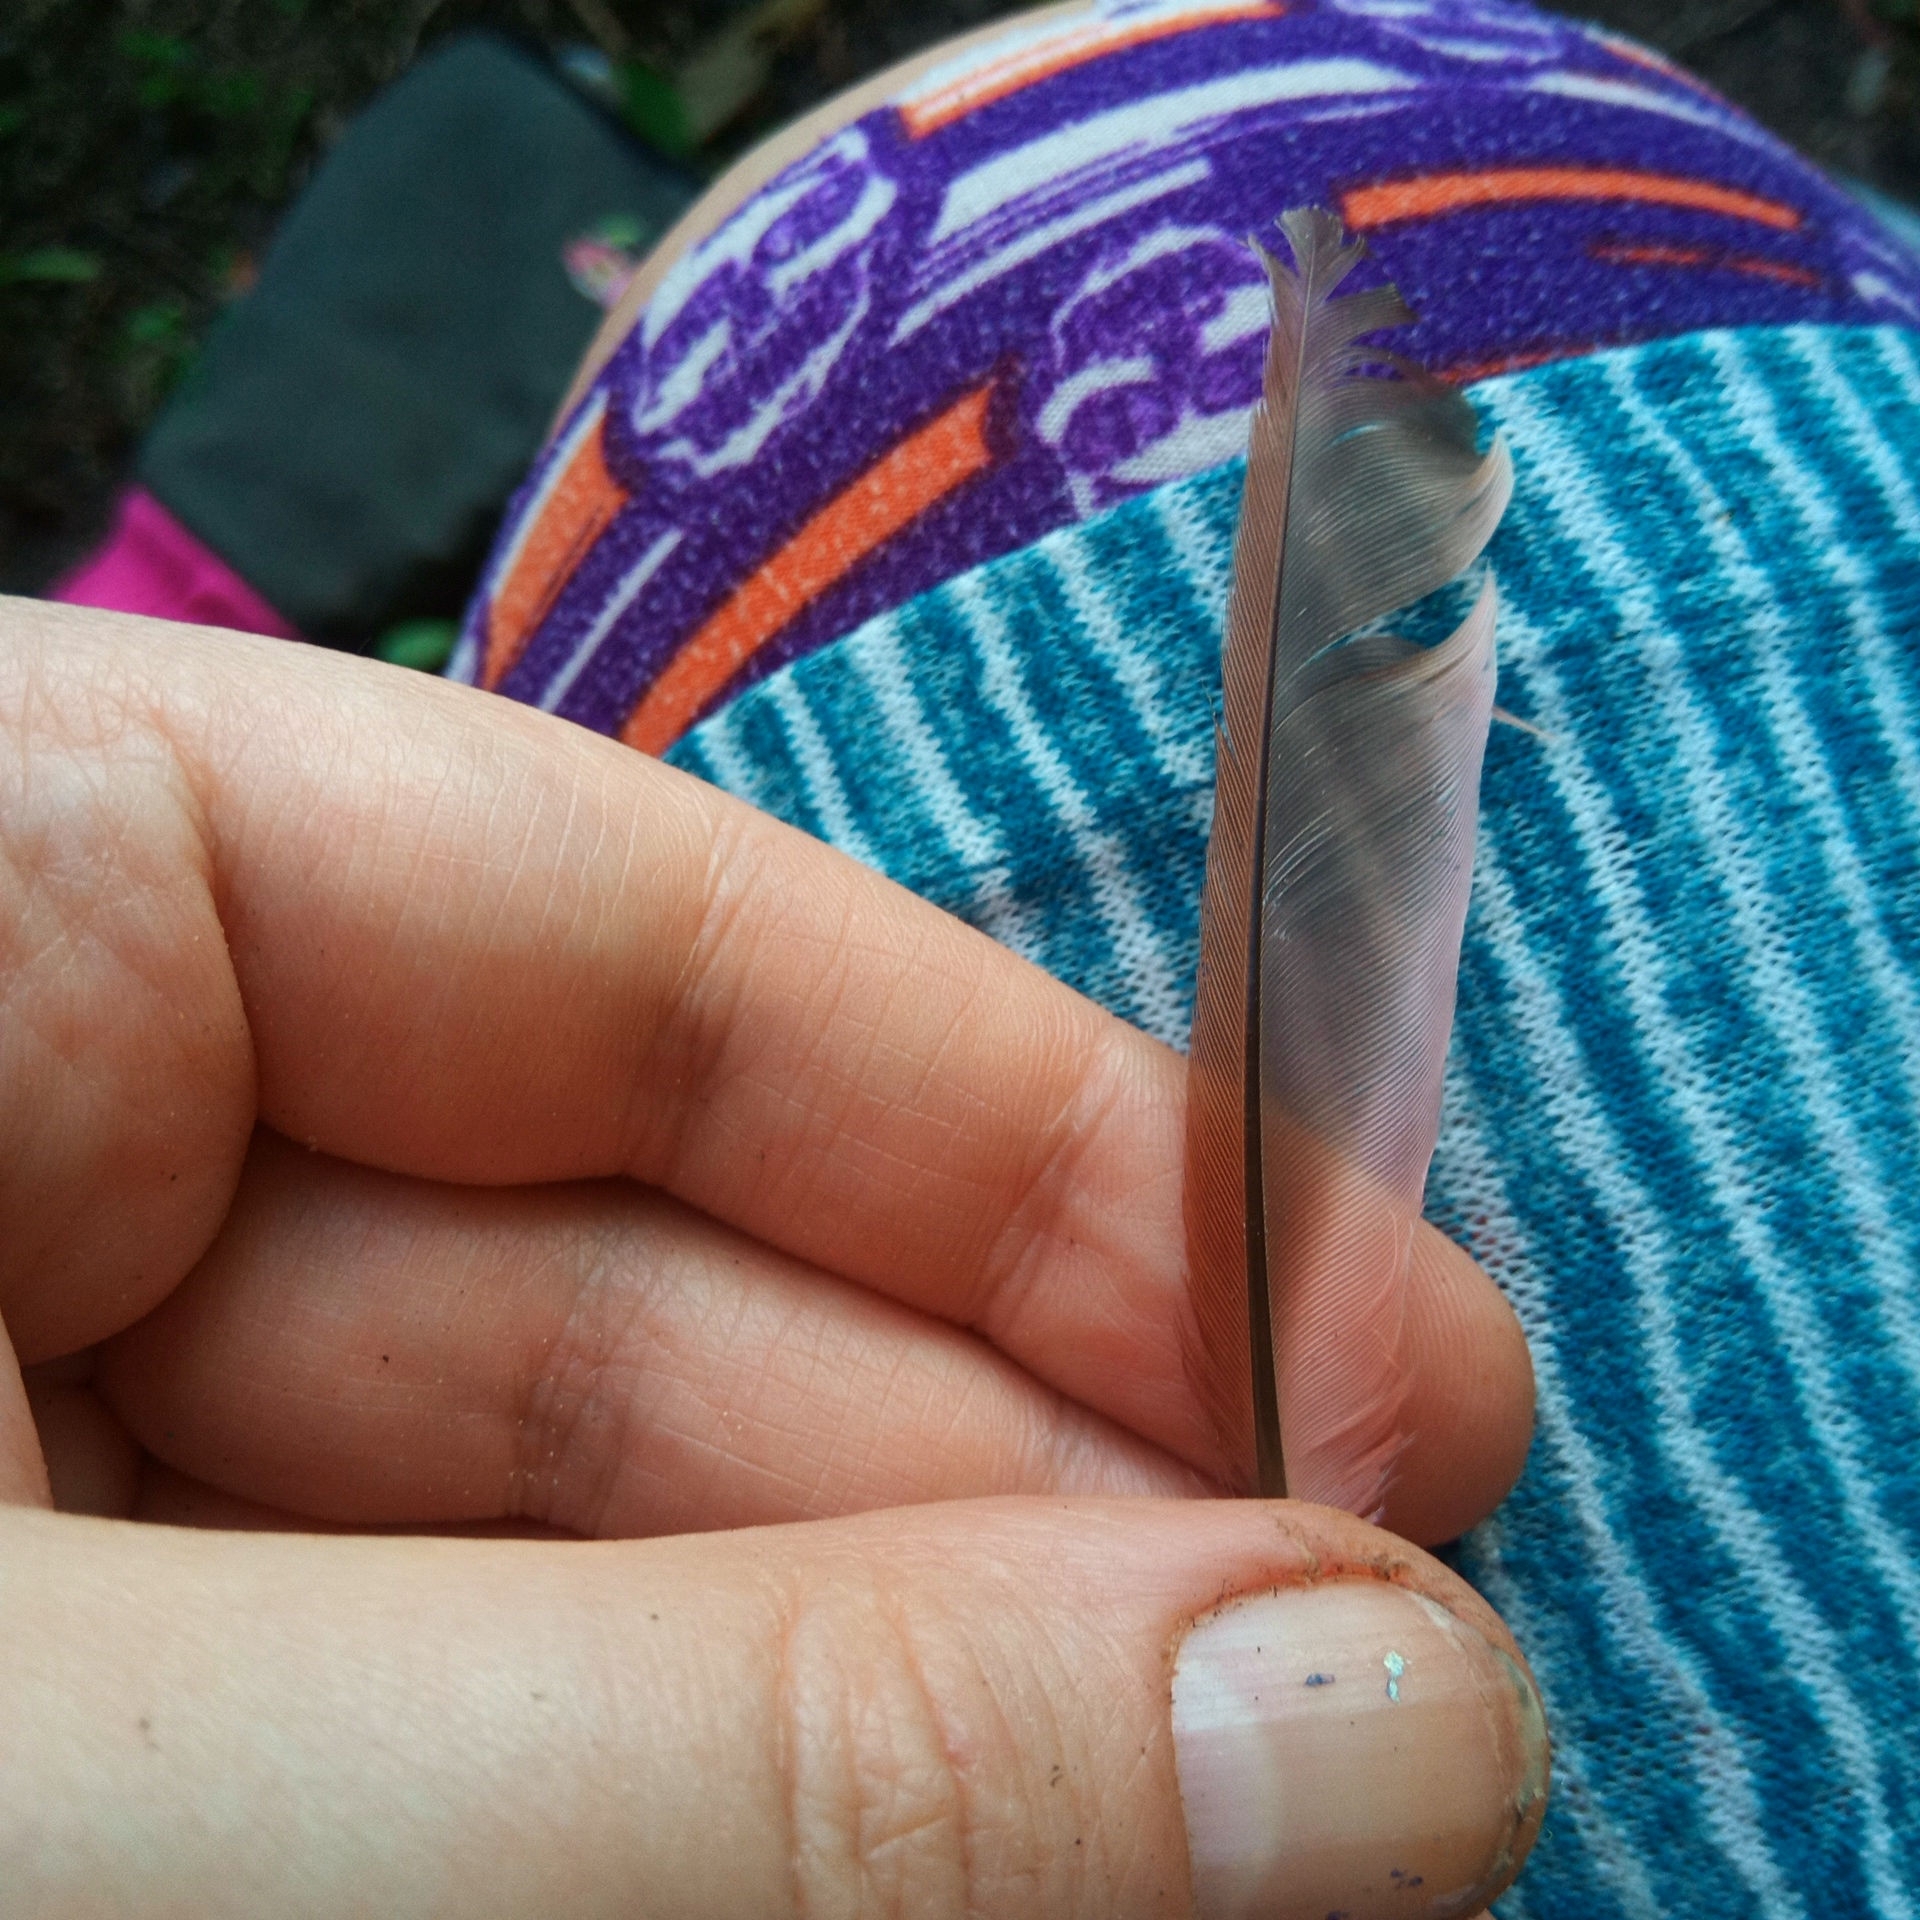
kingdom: Animalia
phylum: Chordata
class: Aves
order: Passeriformes
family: Cardinalidae
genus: Cardinalis
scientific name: Cardinalis cardinalis
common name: Northern cardinal
